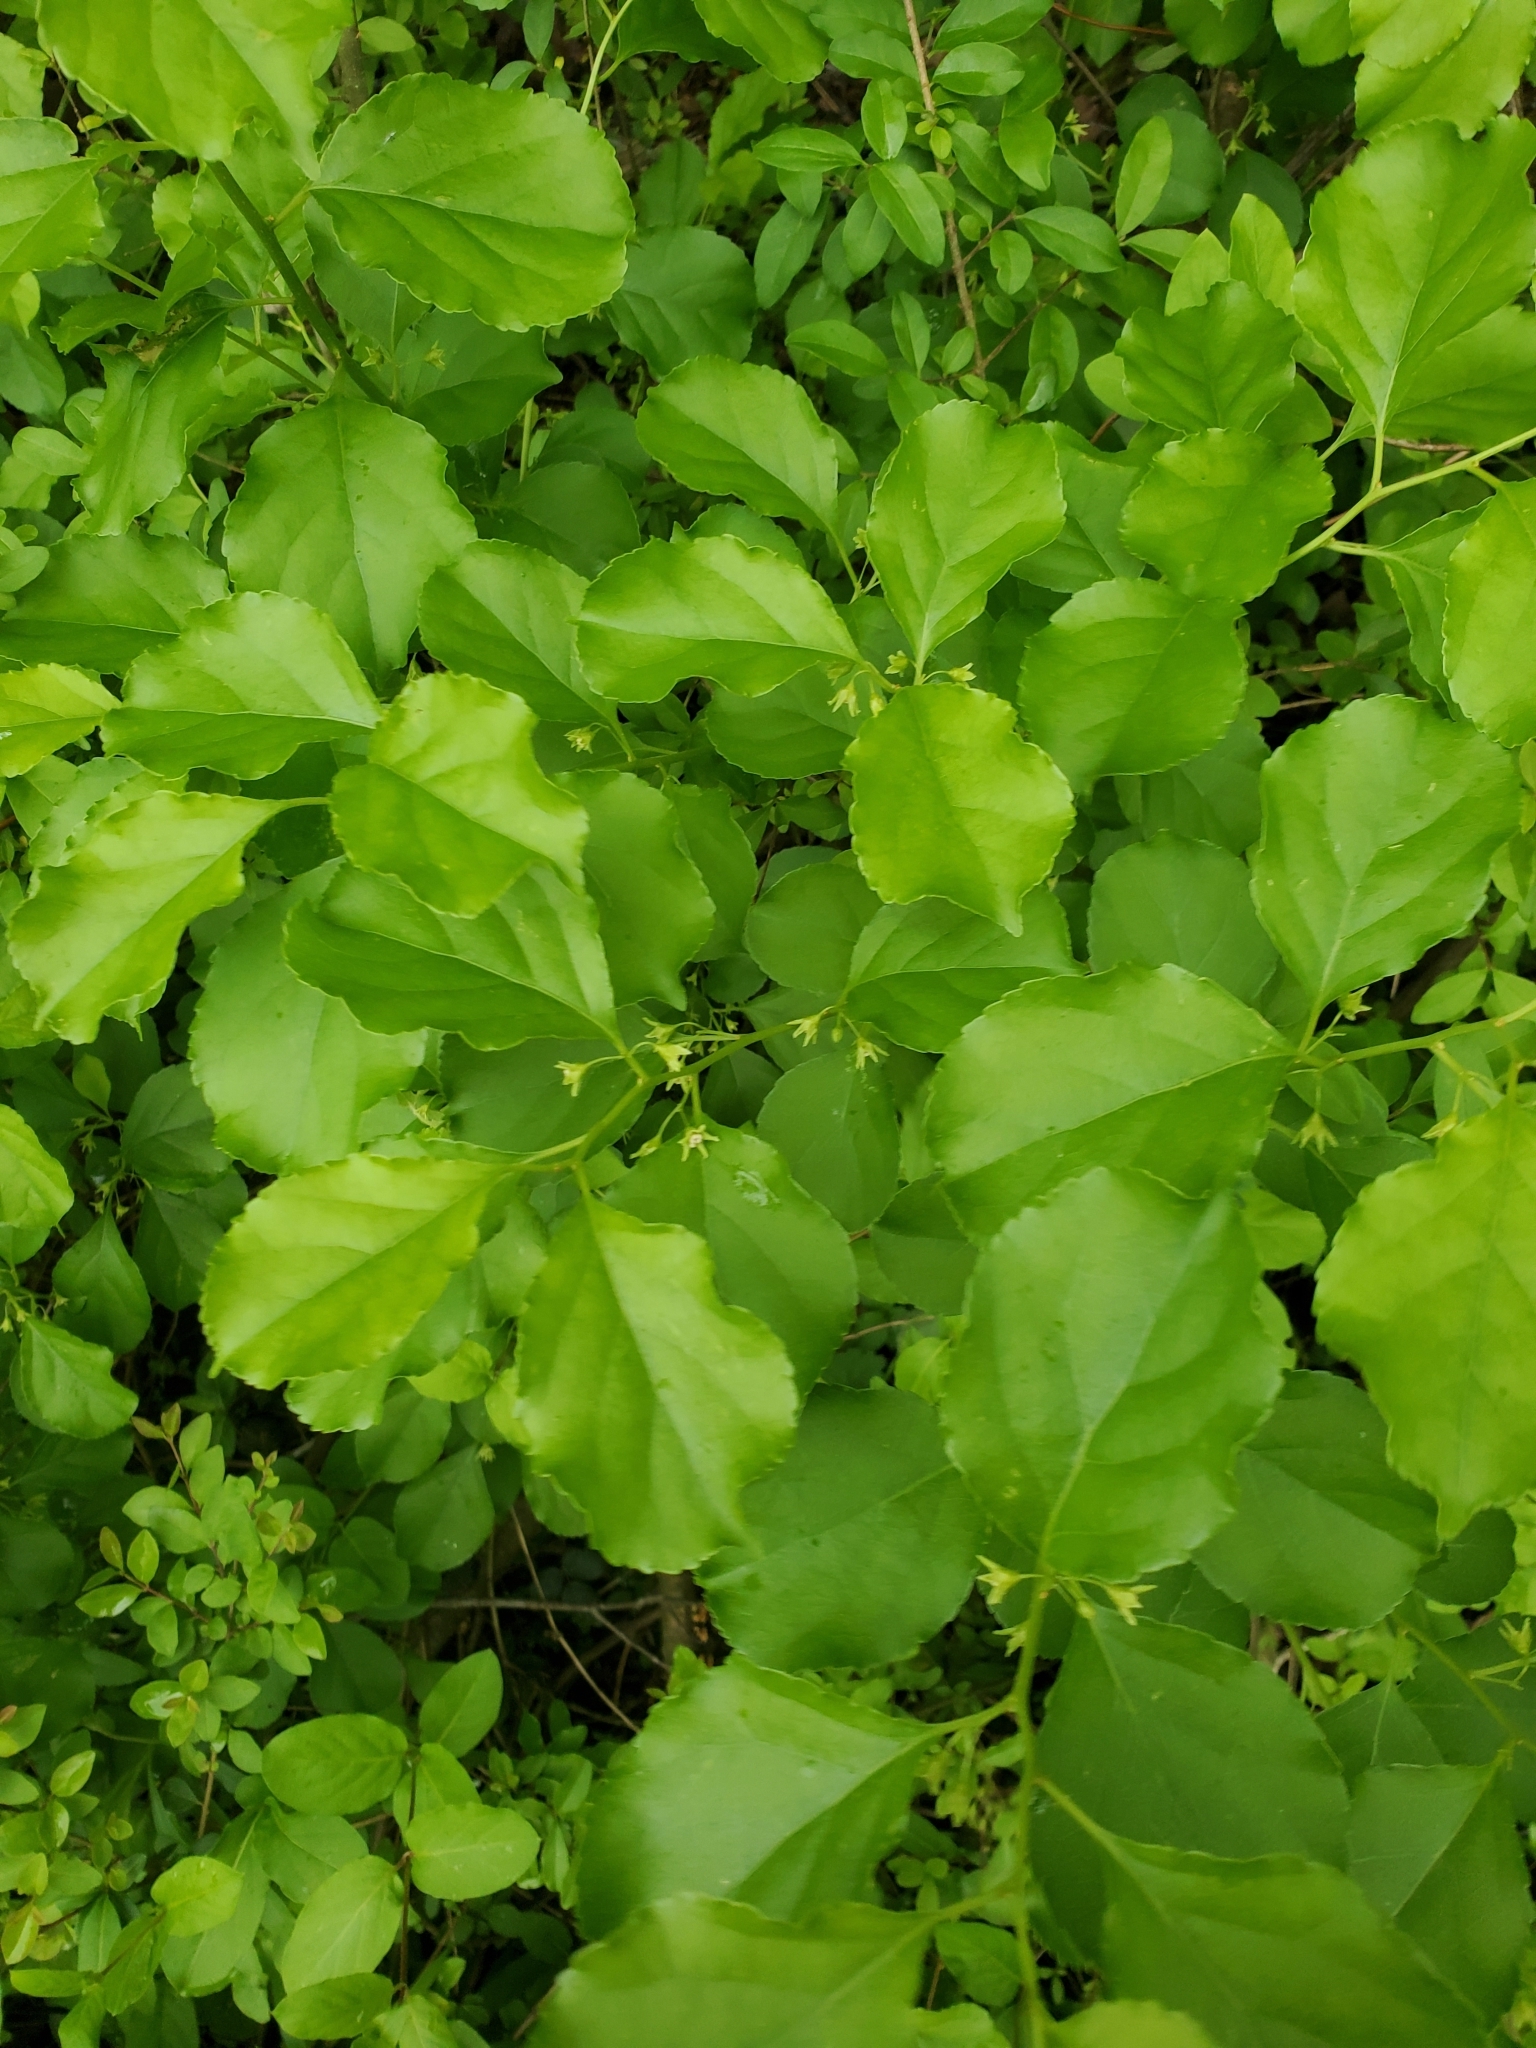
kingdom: Plantae
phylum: Tracheophyta
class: Magnoliopsida
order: Celastrales
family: Celastraceae
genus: Celastrus
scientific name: Celastrus orbiculatus
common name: Oriental bittersweet
